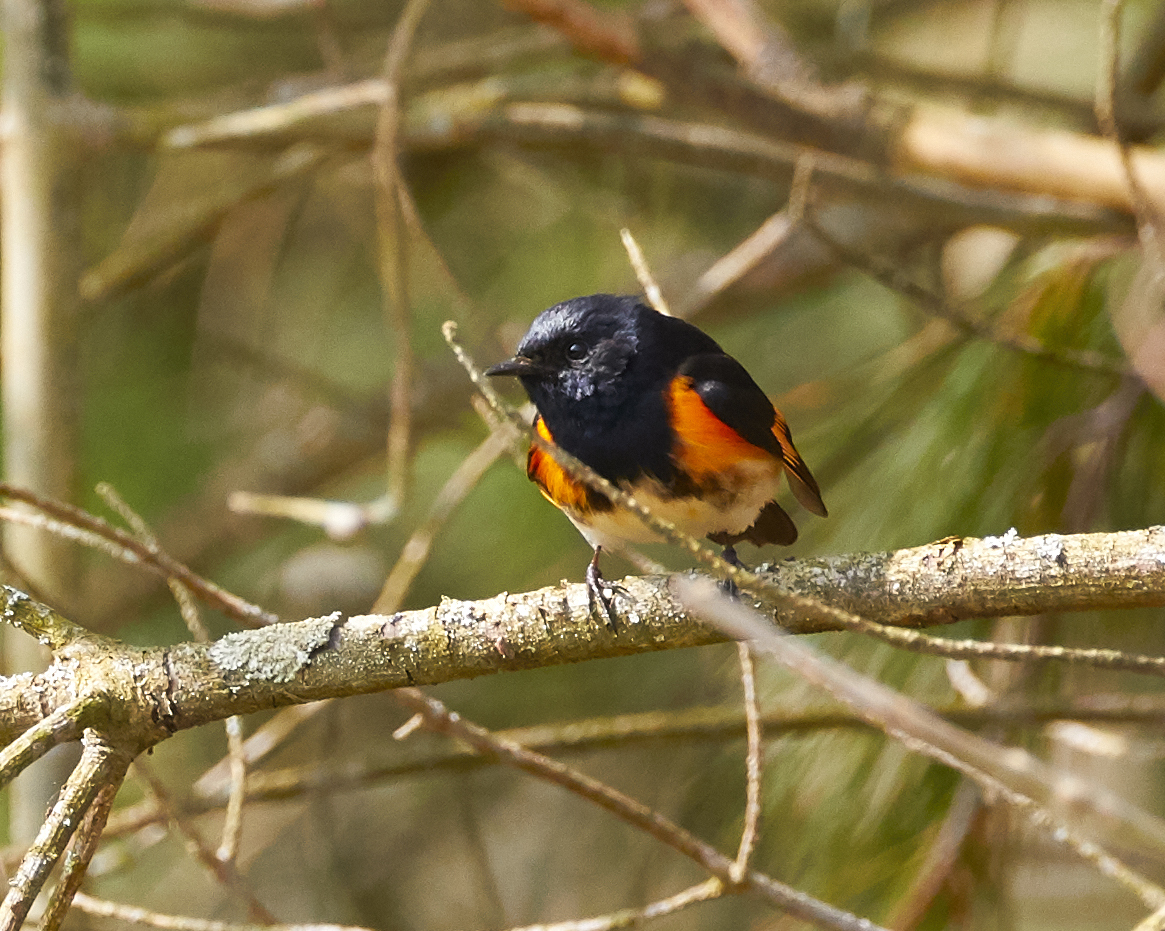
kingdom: Animalia
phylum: Chordata
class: Aves
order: Passeriformes
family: Parulidae
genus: Setophaga
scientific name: Setophaga ruticilla
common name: American redstart
